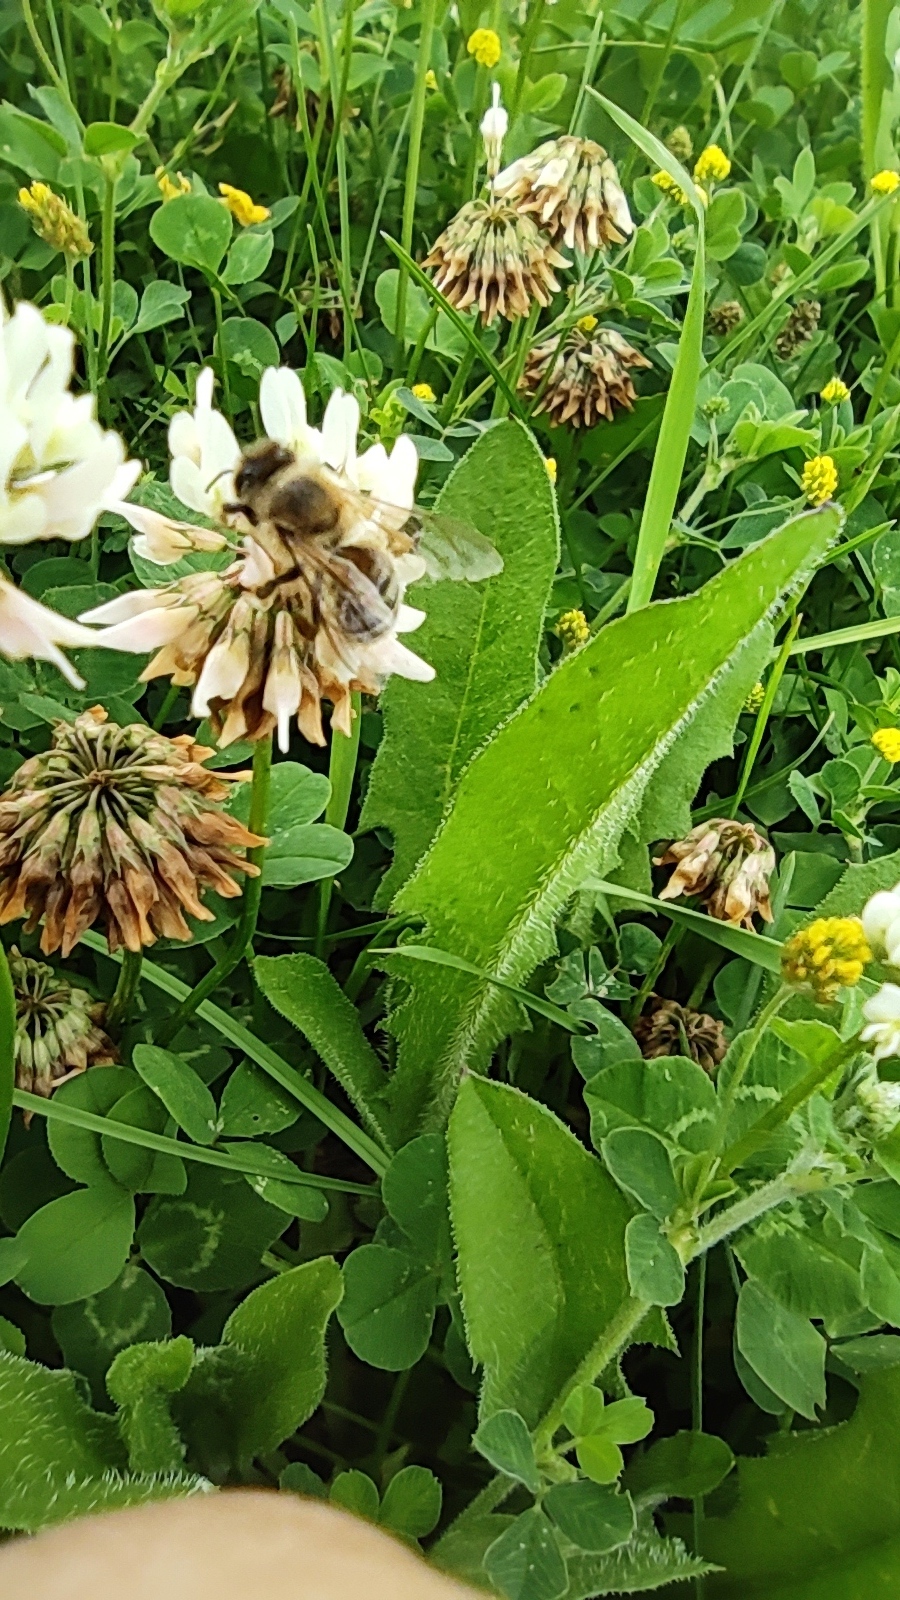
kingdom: Animalia
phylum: Arthropoda
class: Insecta
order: Hymenoptera
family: Apidae
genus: Apis
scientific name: Apis mellifera
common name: Honey bee
